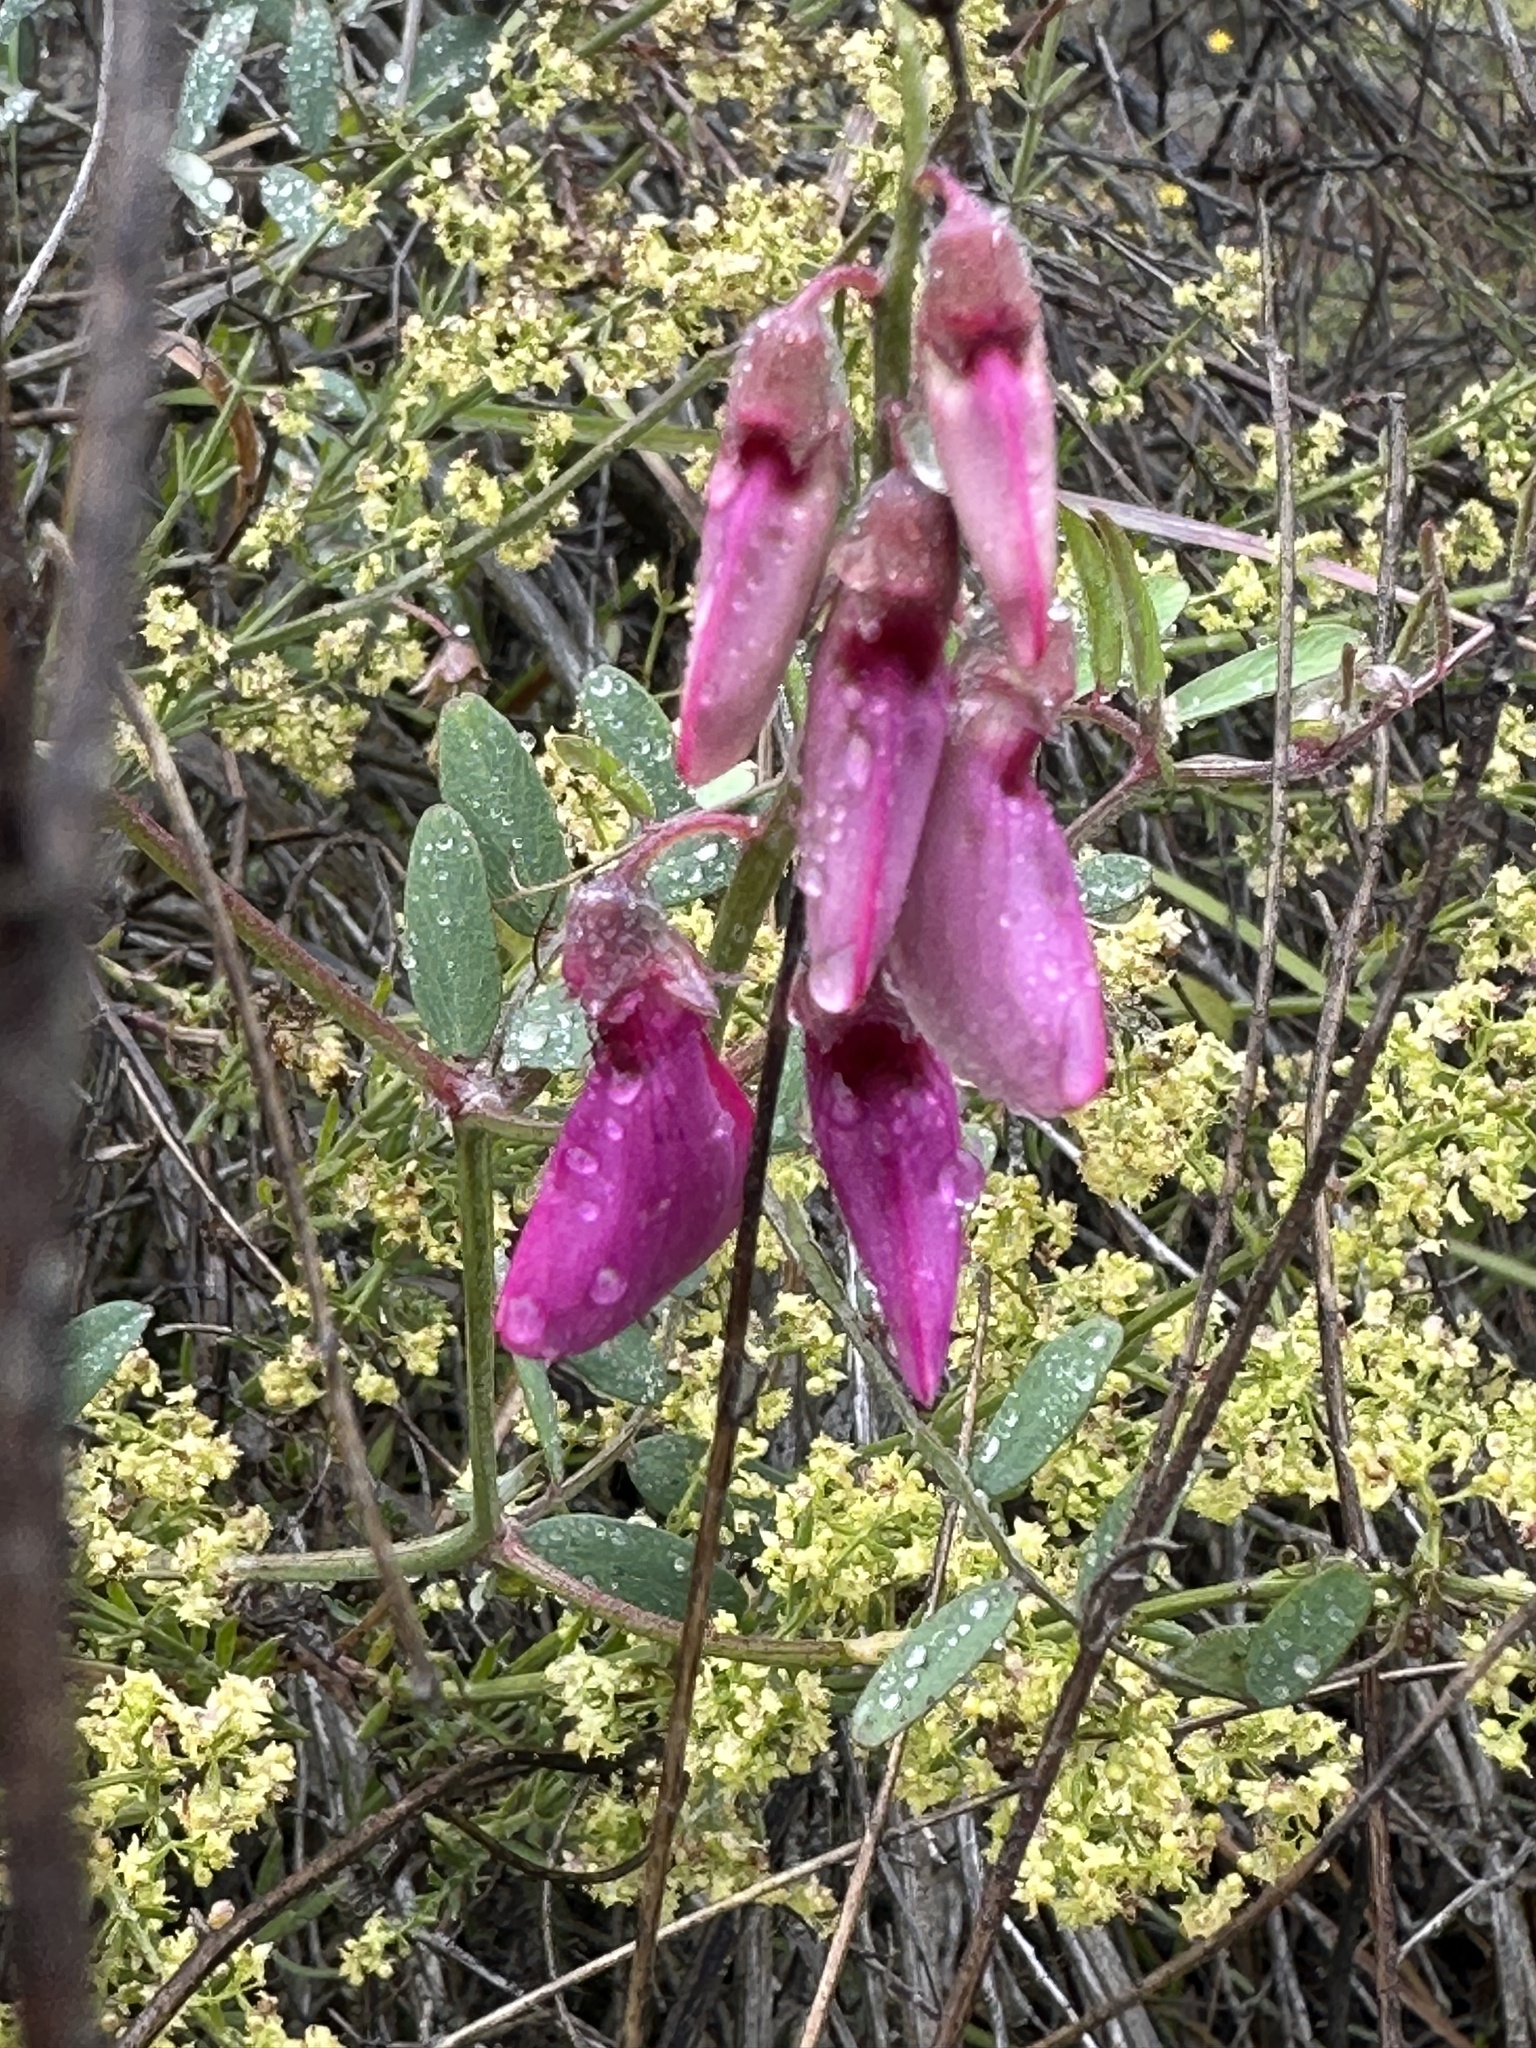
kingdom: Plantae
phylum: Tracheophyta
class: Magnoliopsida
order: Fabales
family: Fabaceae
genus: Lathyrus
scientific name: Lathyrus vestitus
